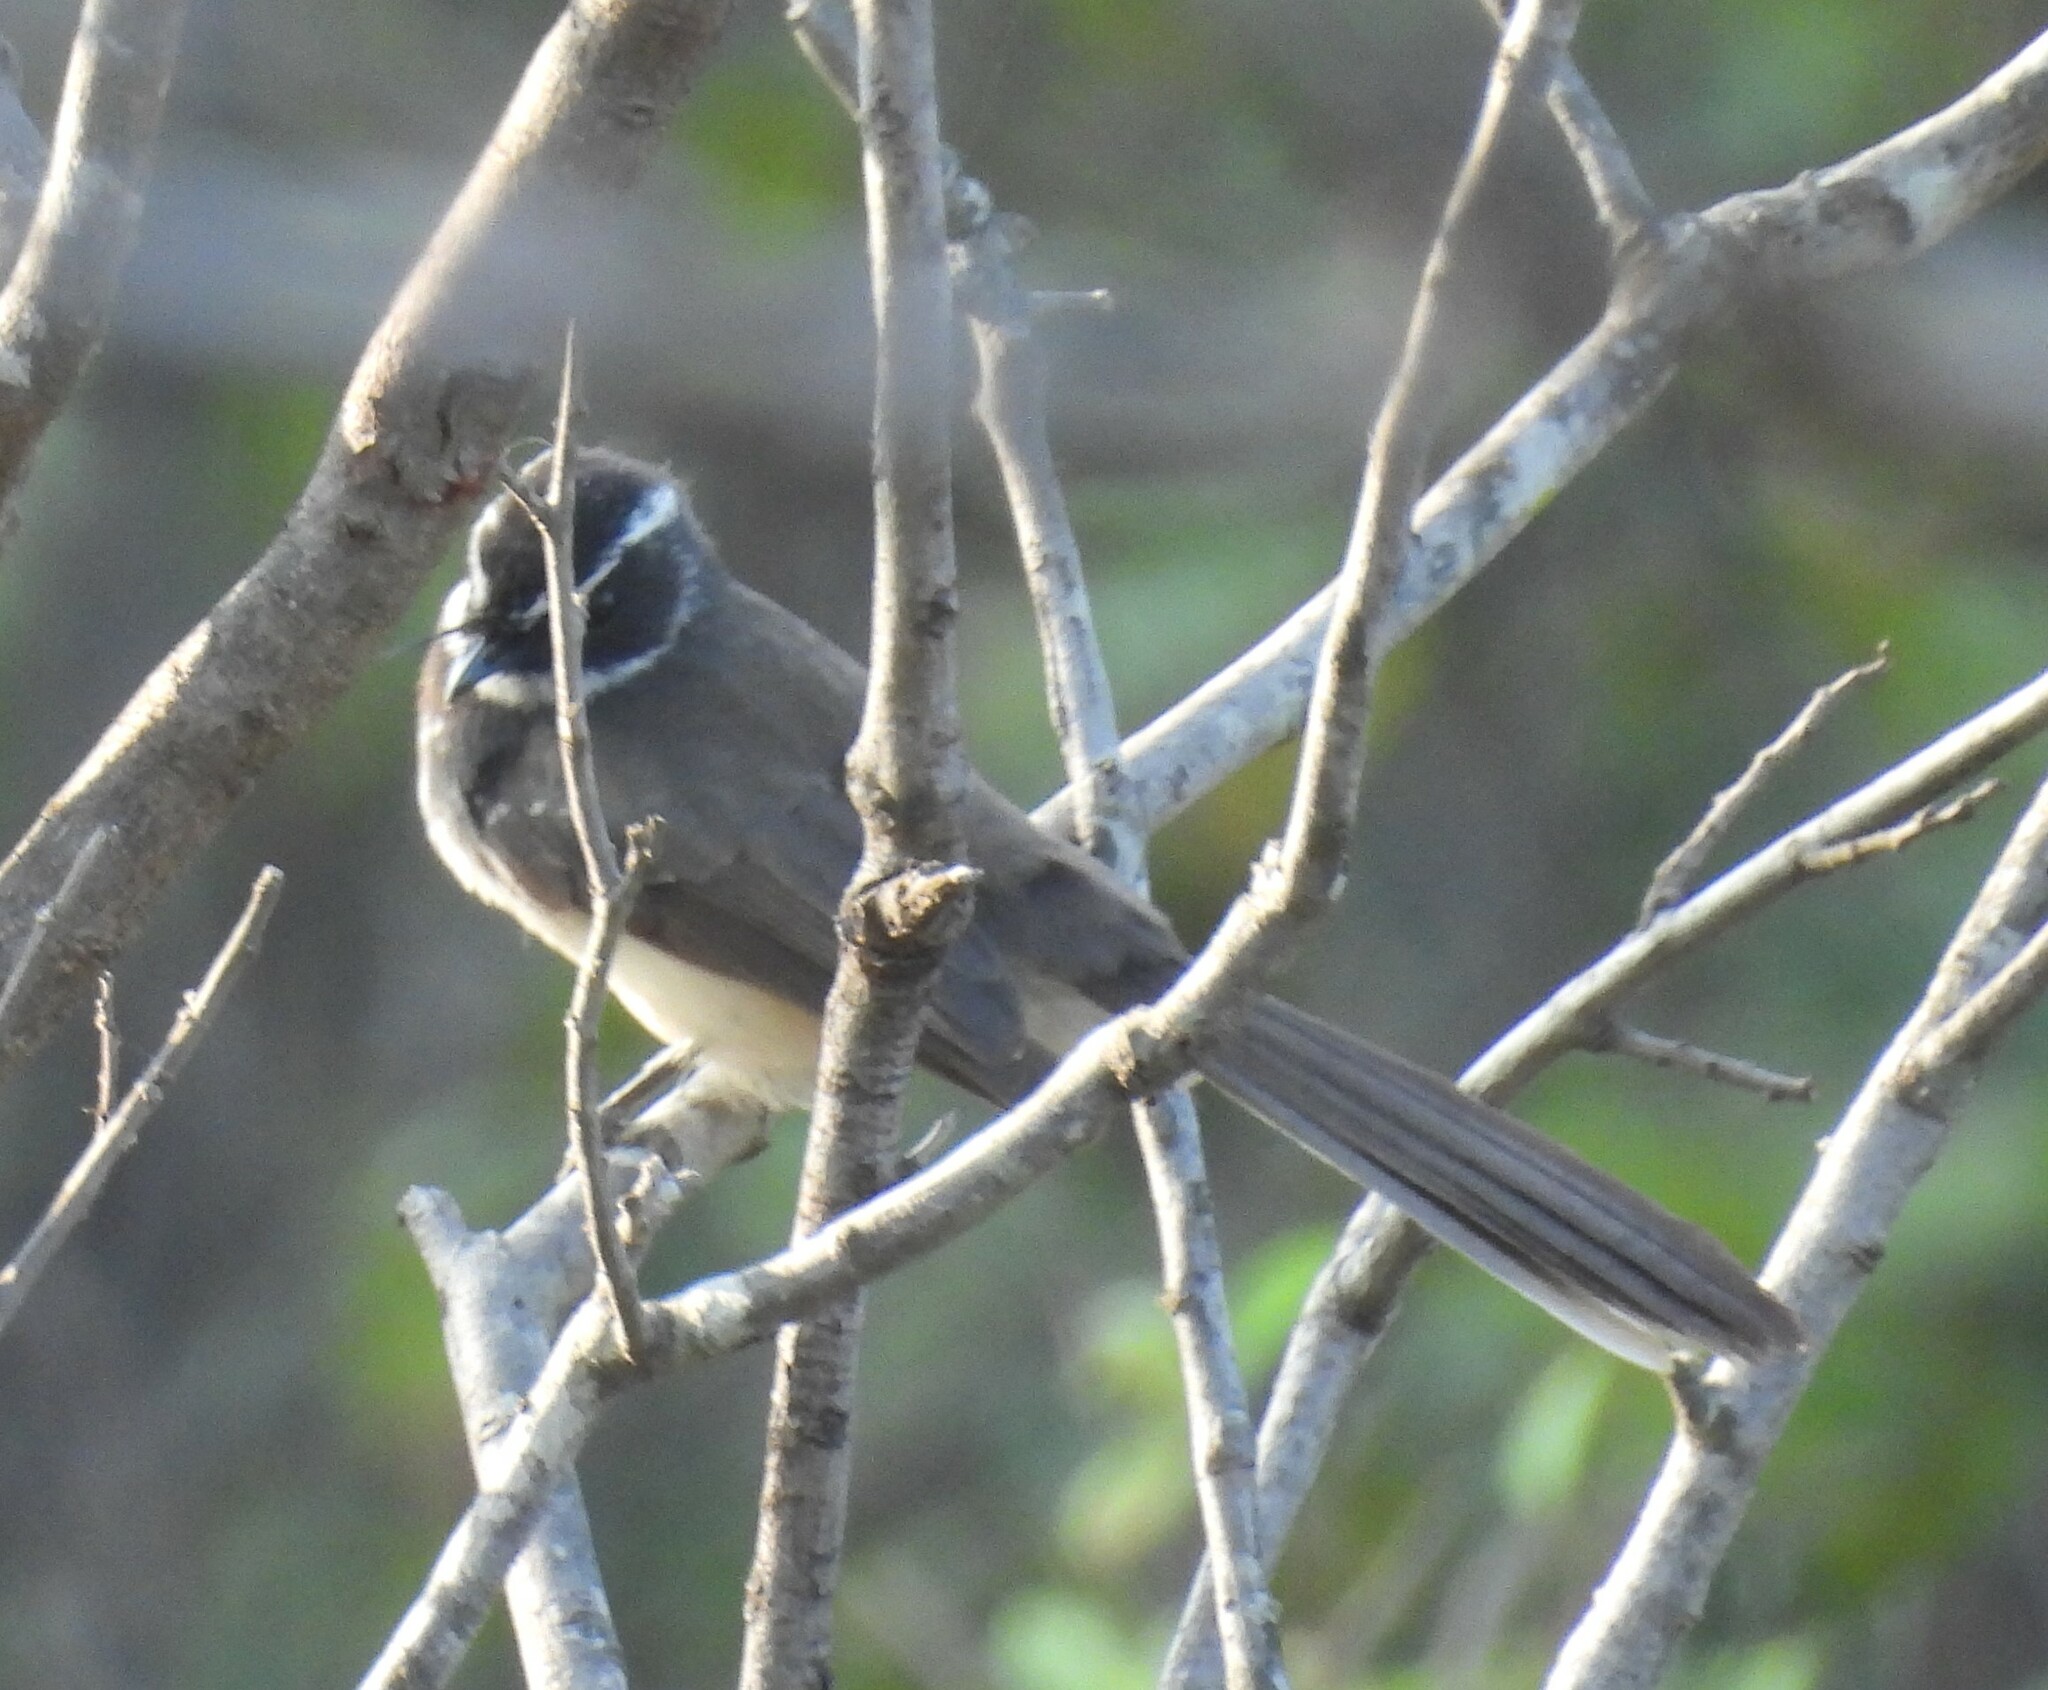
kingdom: Animalia
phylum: Chordata
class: Aves
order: Passeriformes
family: Rhipiduridae
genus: Rhipidura
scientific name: Rhipidura albogularis
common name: White-spotted fantail
